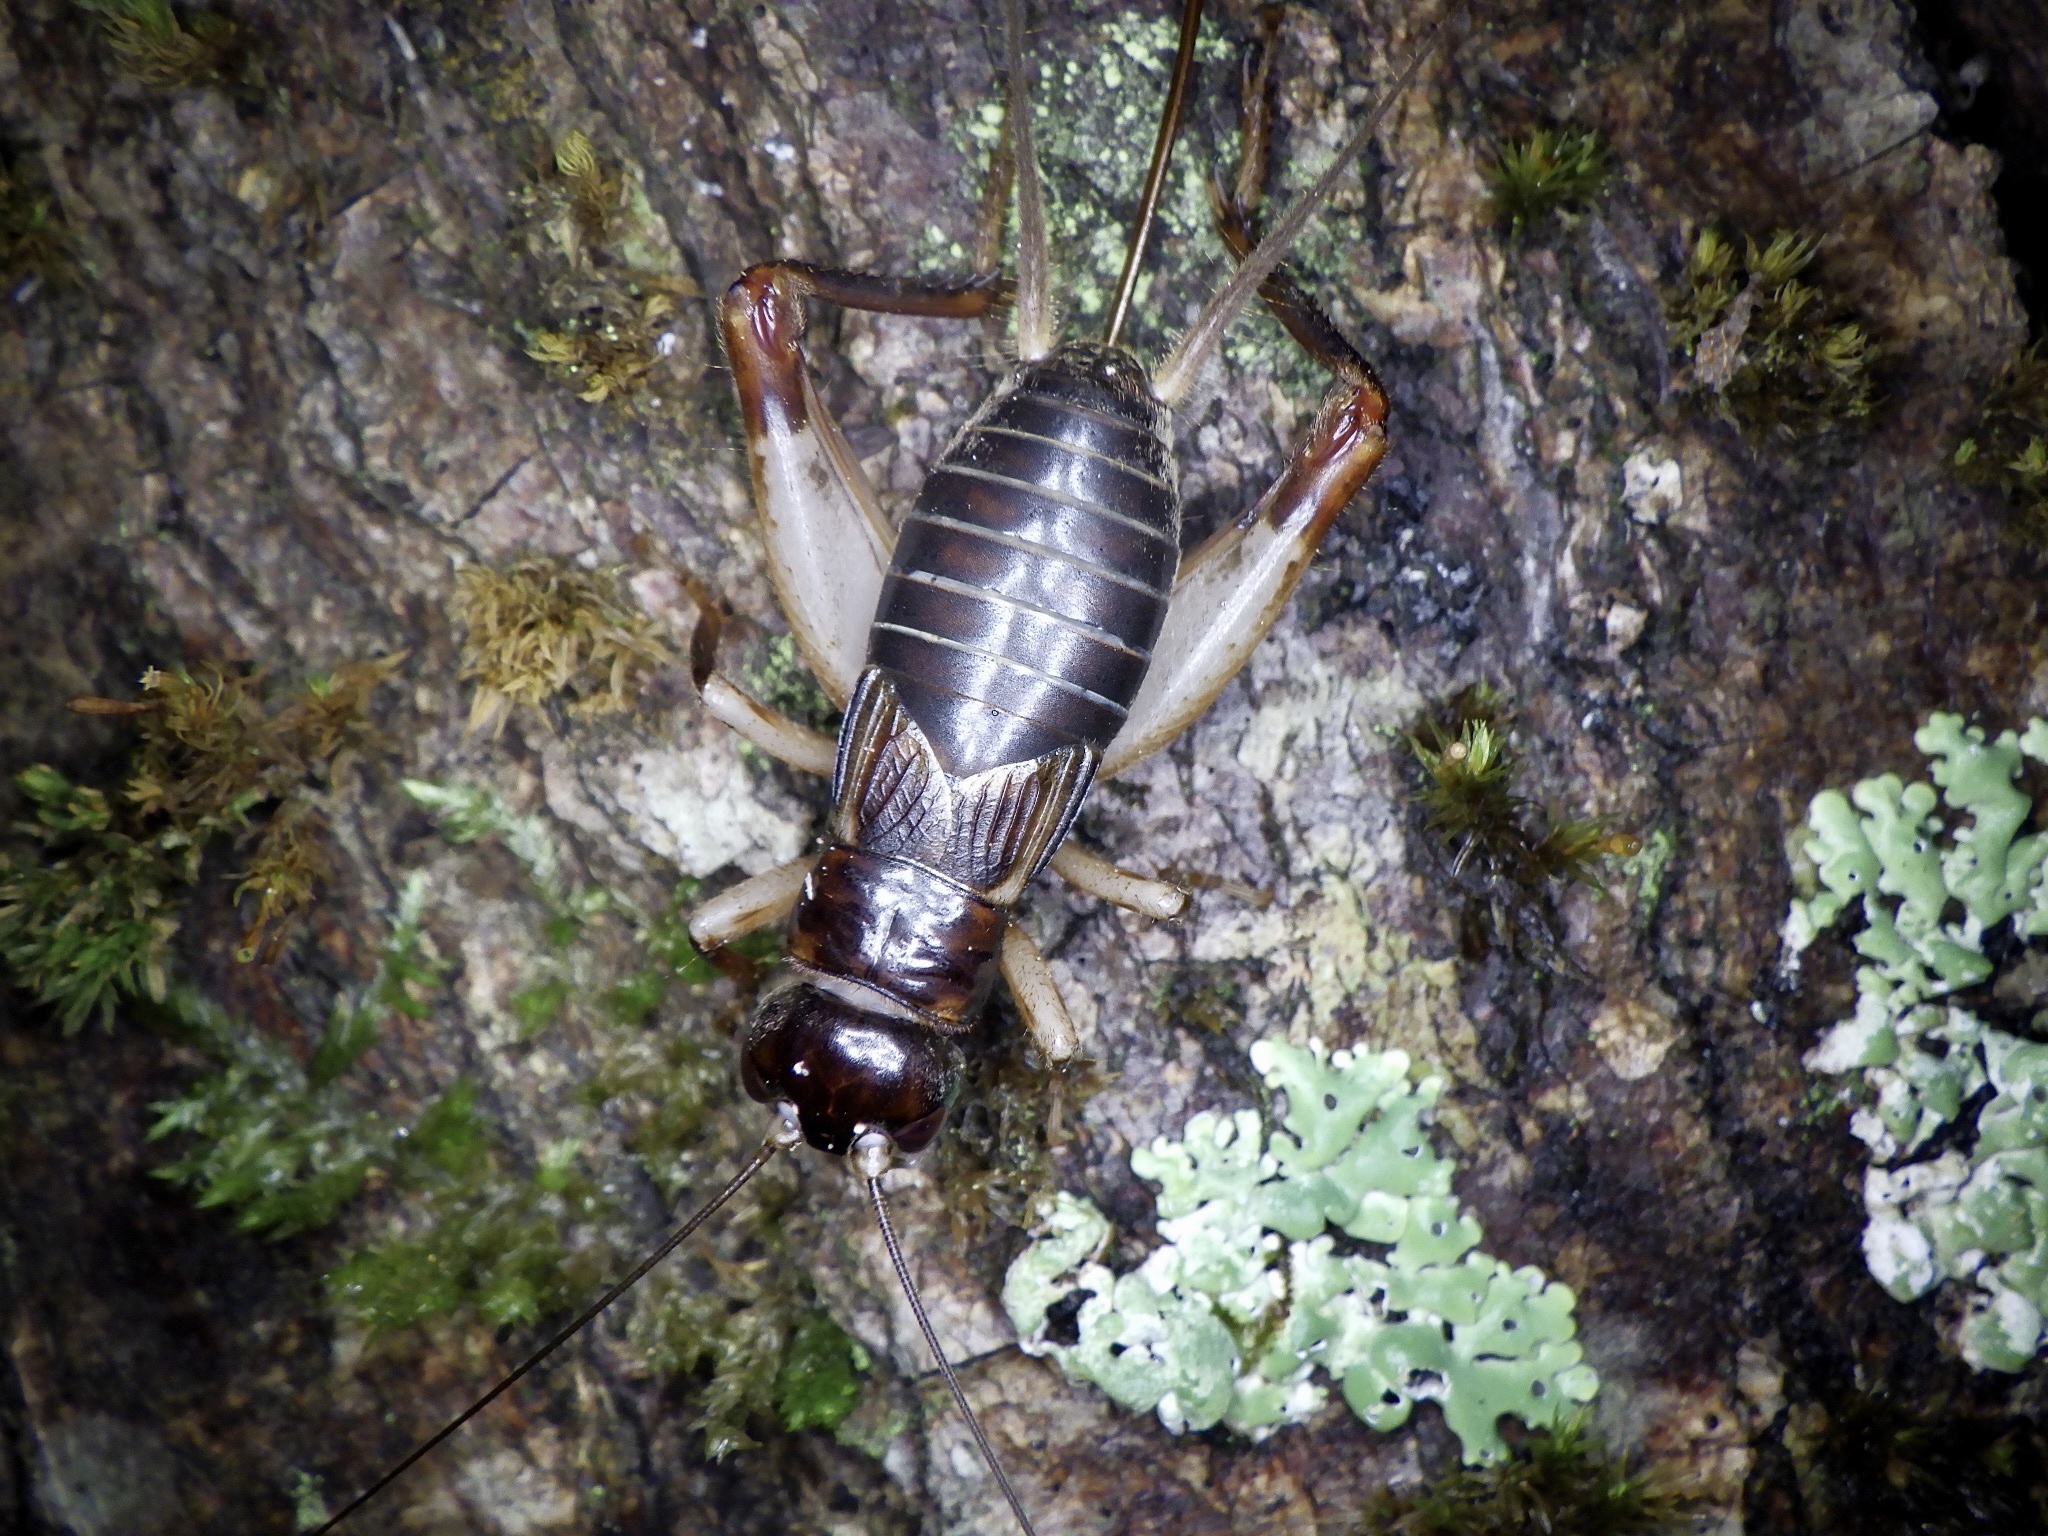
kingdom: Animalia
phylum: Arthropoda
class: Insecta
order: Orthoptera
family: Gryllidae
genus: Duolandrevus
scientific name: Duolandrevus ivani
